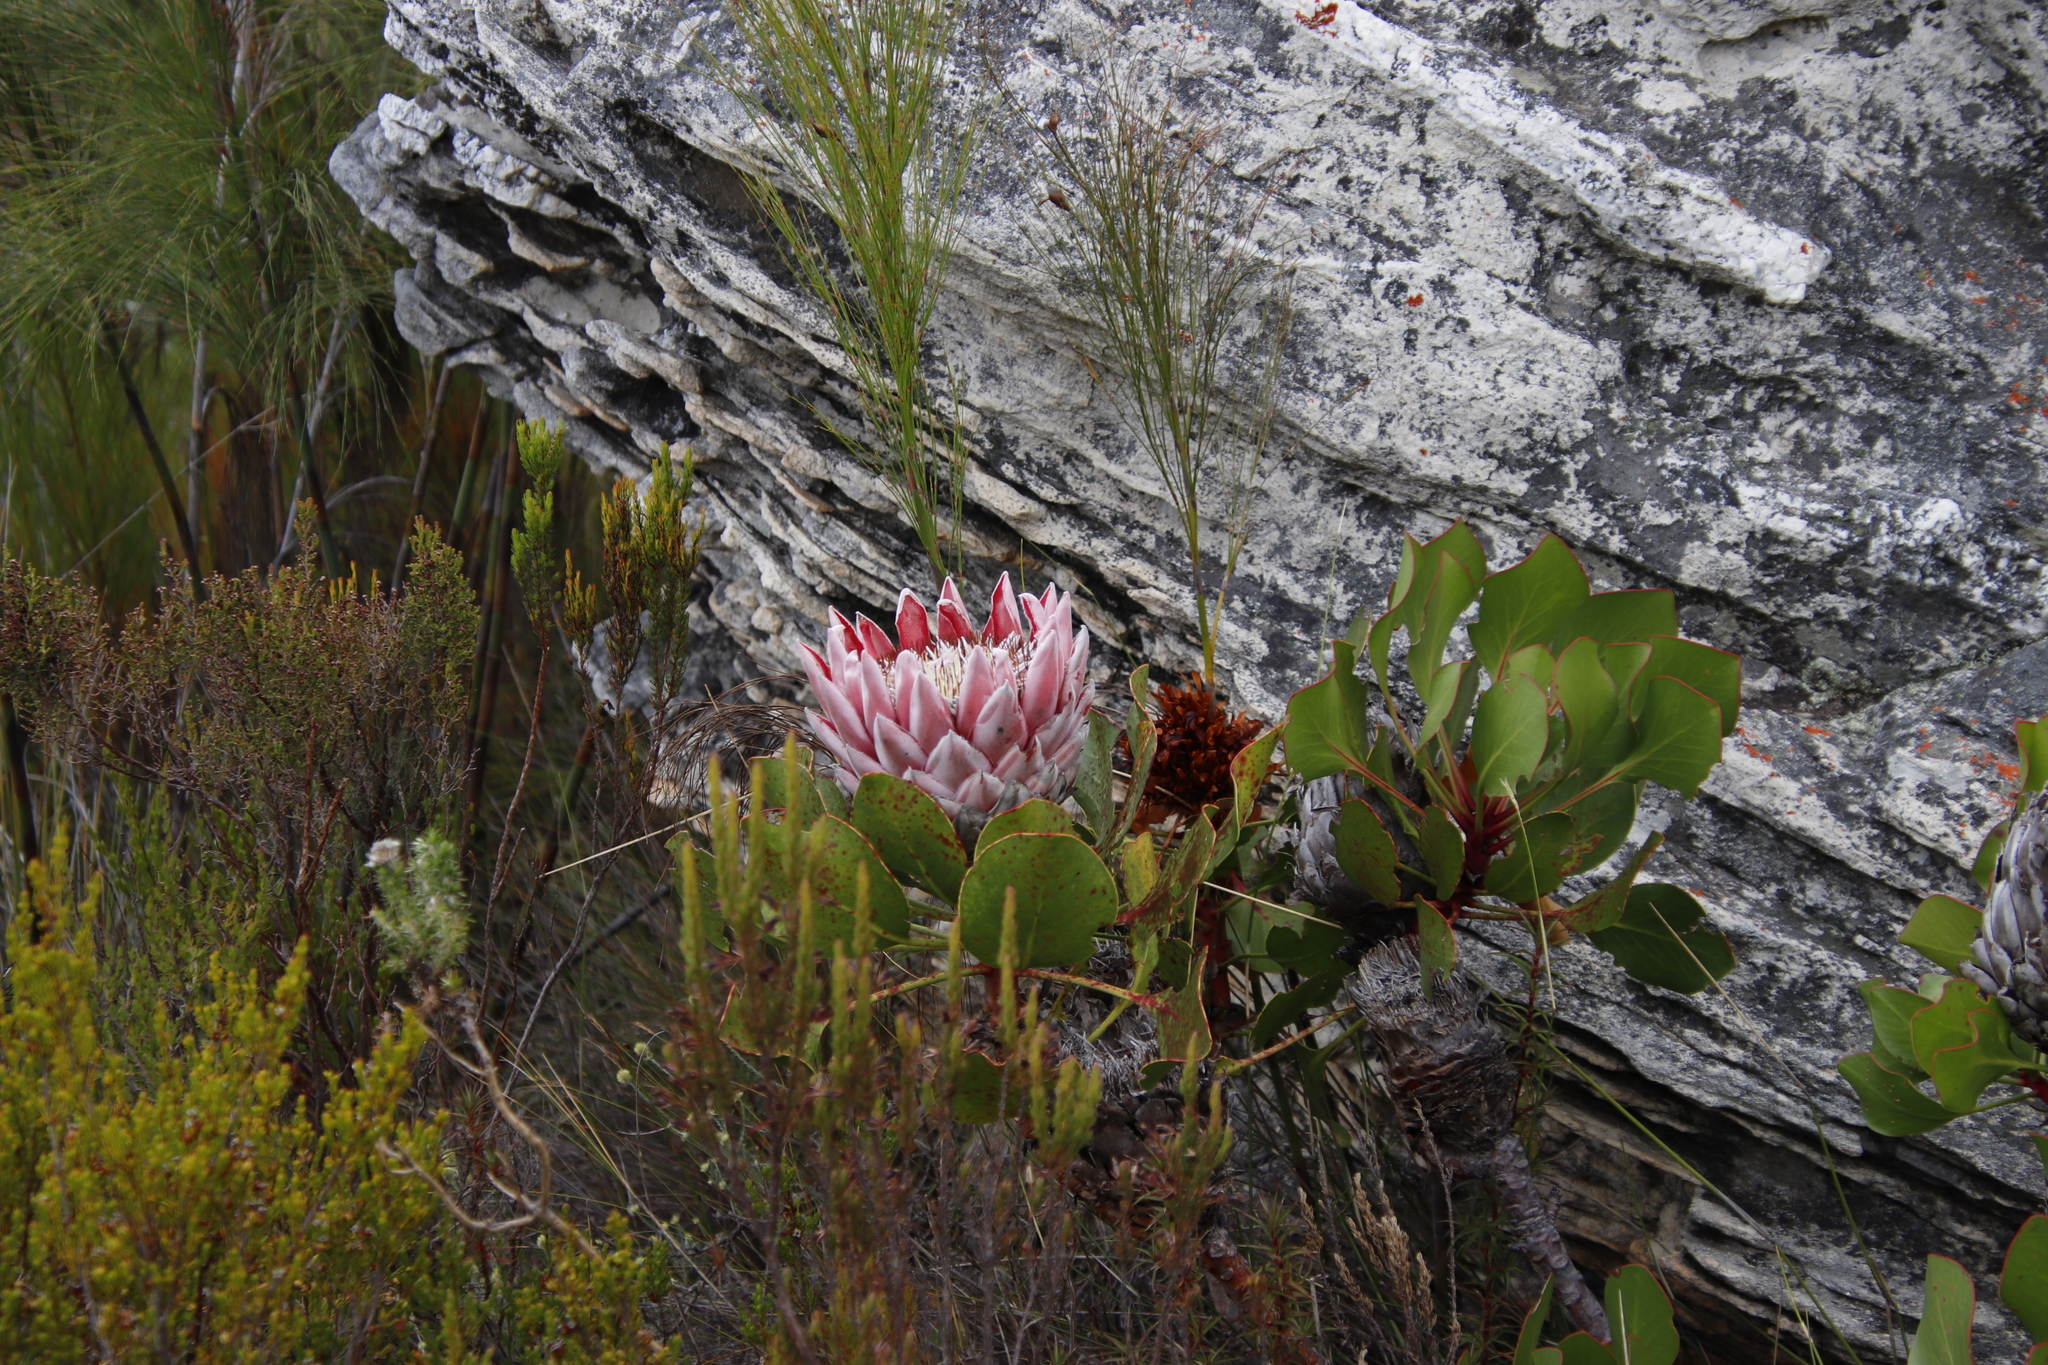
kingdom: Plantae
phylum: Tracheophyta
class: Magnoliopsida
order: Proteales
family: Proteaceae
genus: Protea
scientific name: Protea cynaroides
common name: King protea
